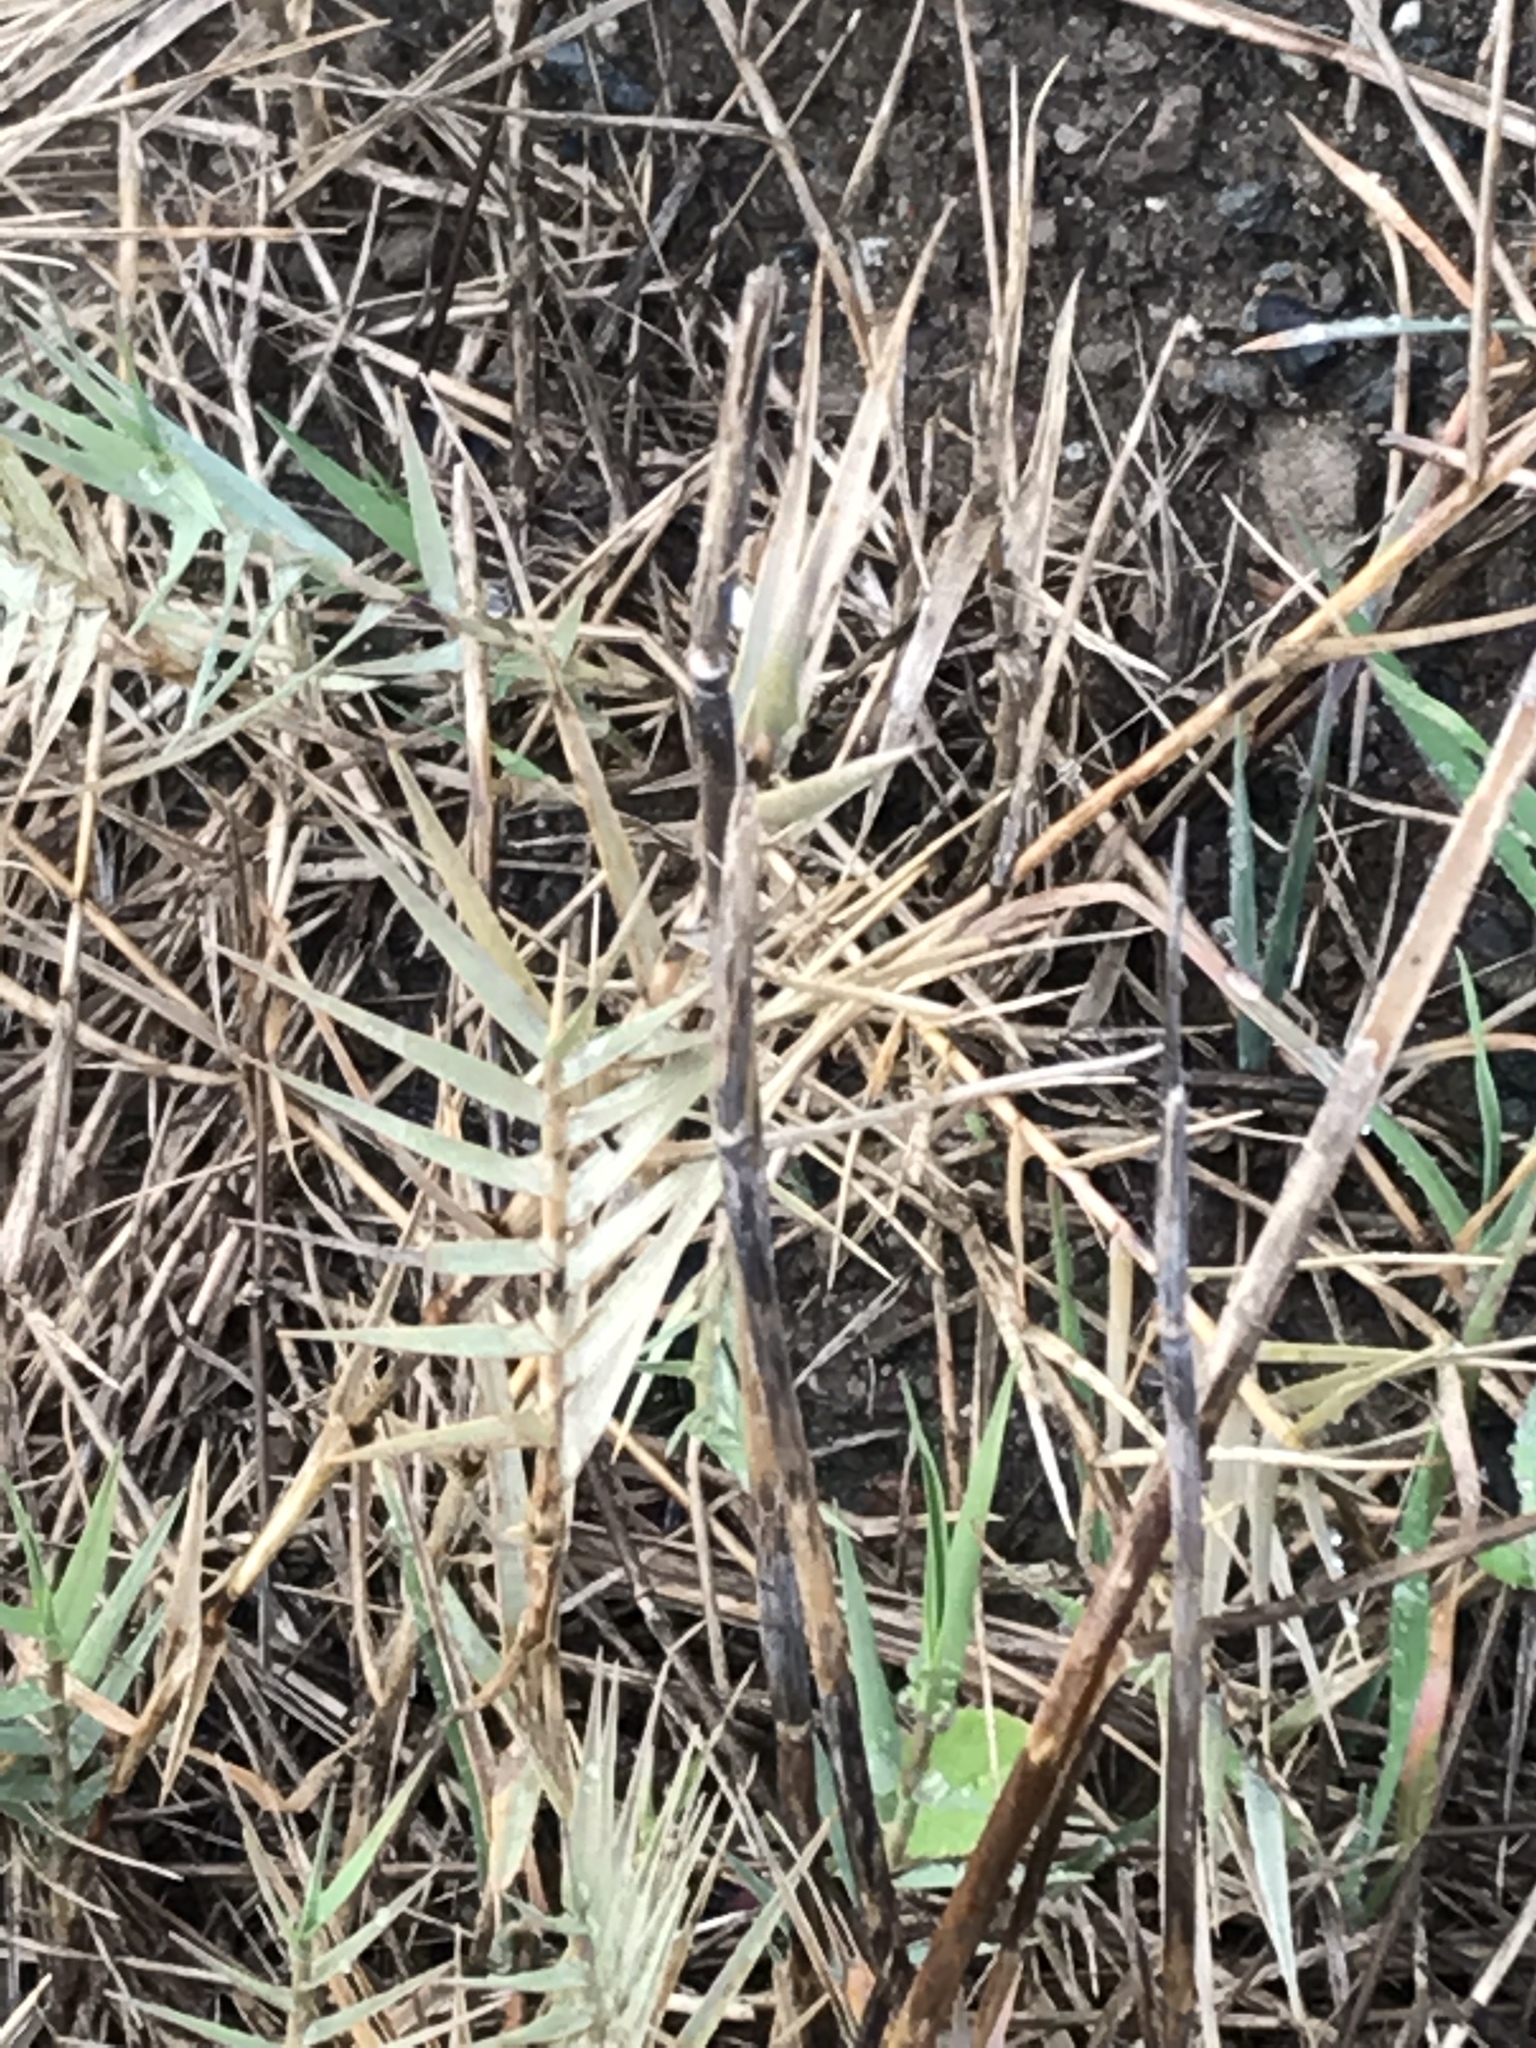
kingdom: Plantae
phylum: Tracheophyta
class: Liliopsida
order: Poales
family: Poaceae
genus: Distichlis
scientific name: Distichlis spicata
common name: Saltgrass
